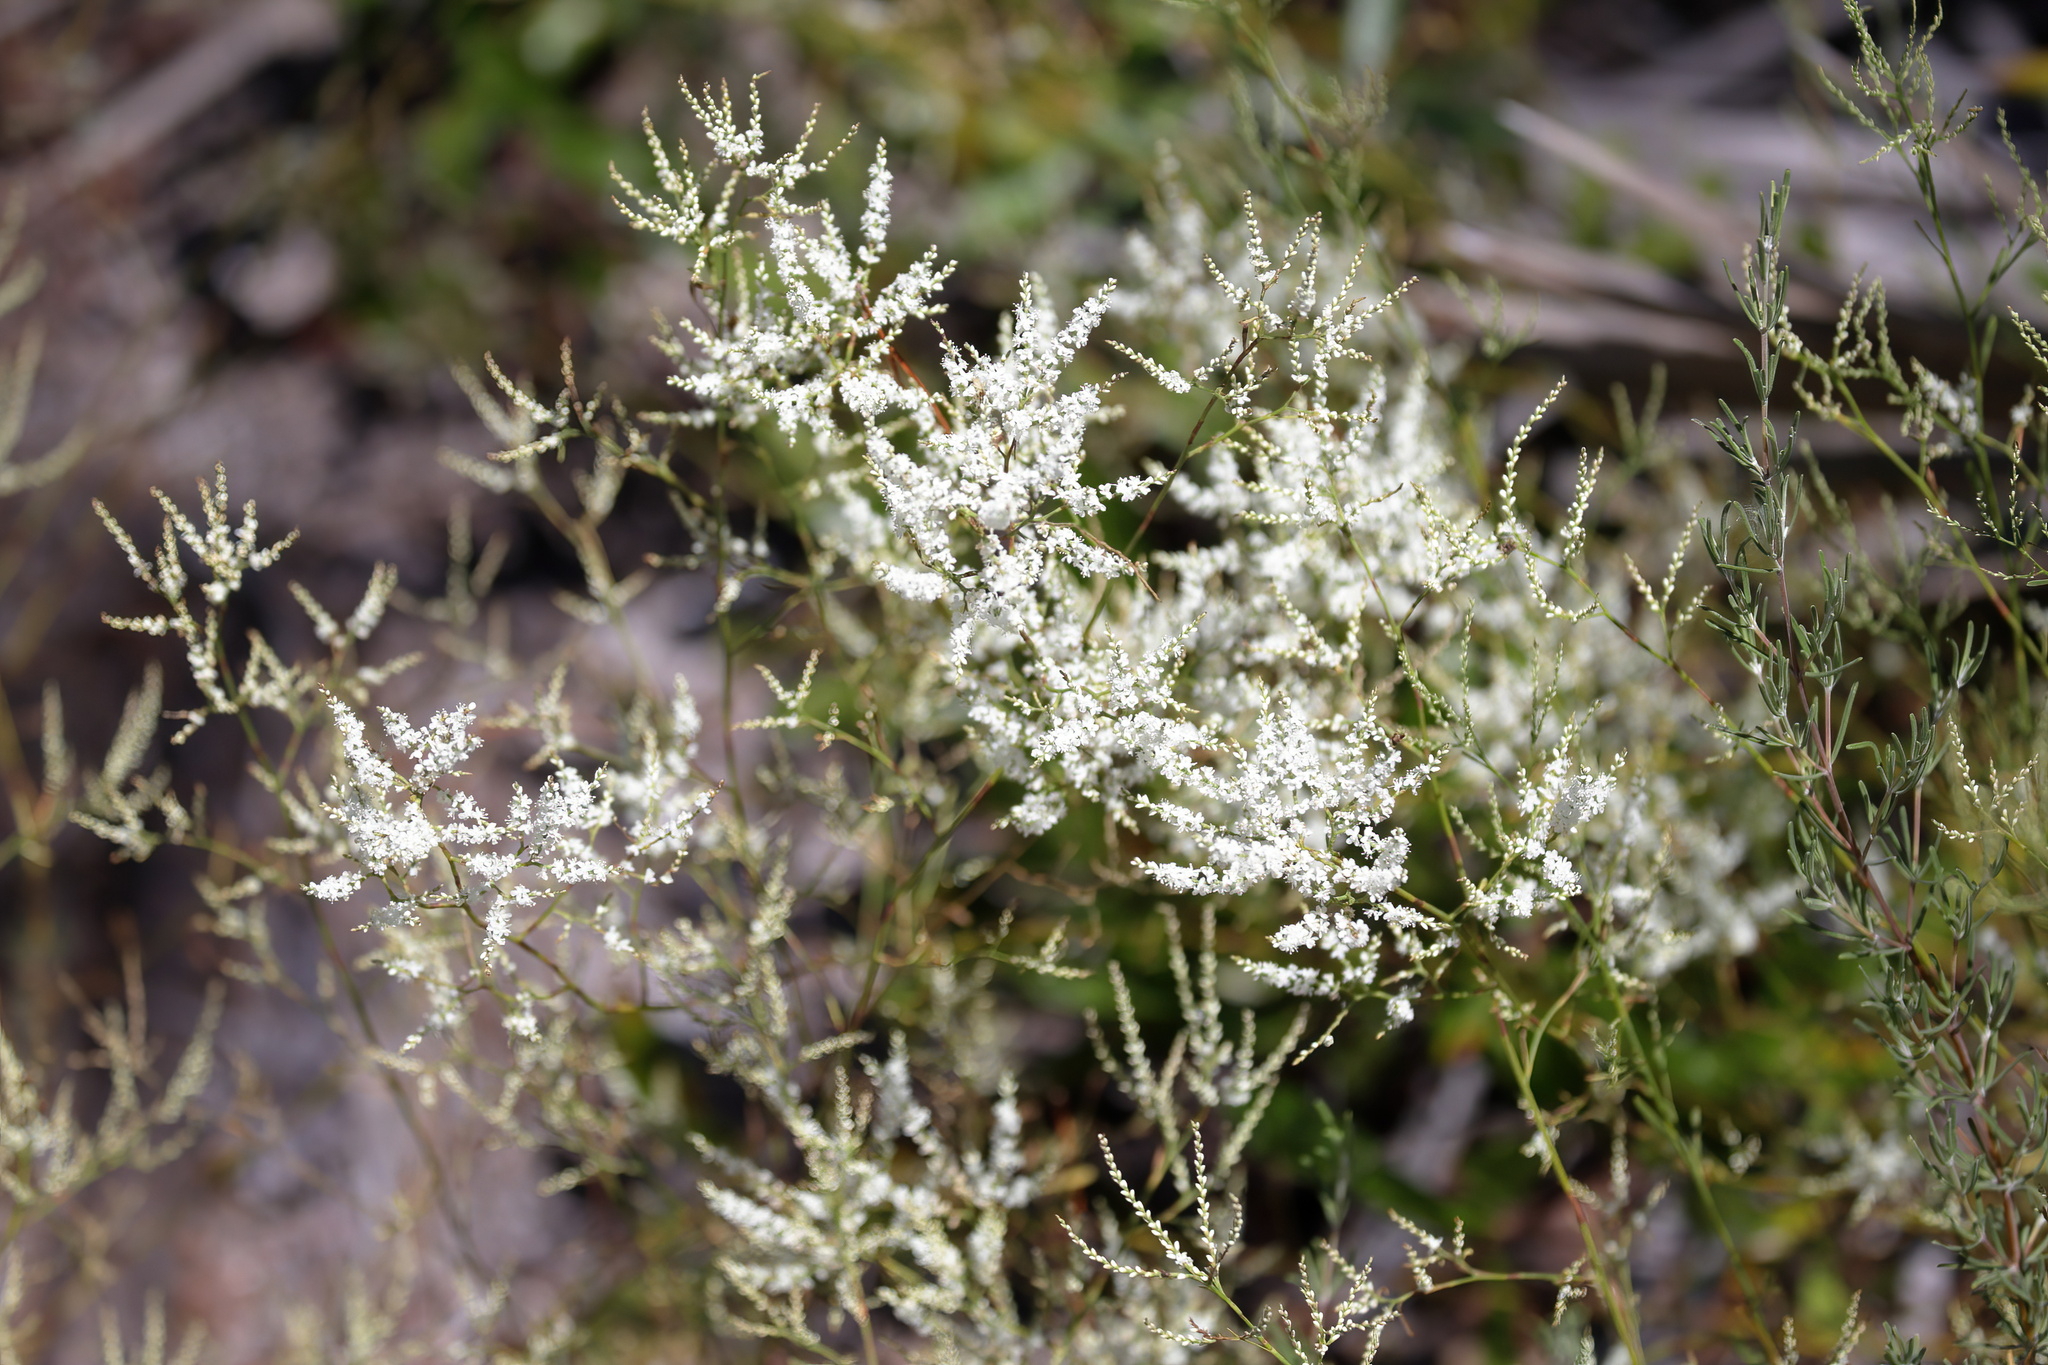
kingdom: Plantae
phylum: Tracheophyta
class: Magnoliopsida
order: Caryophyllales
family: Polygonaceae
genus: Polygonella
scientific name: Polygonella polygama
